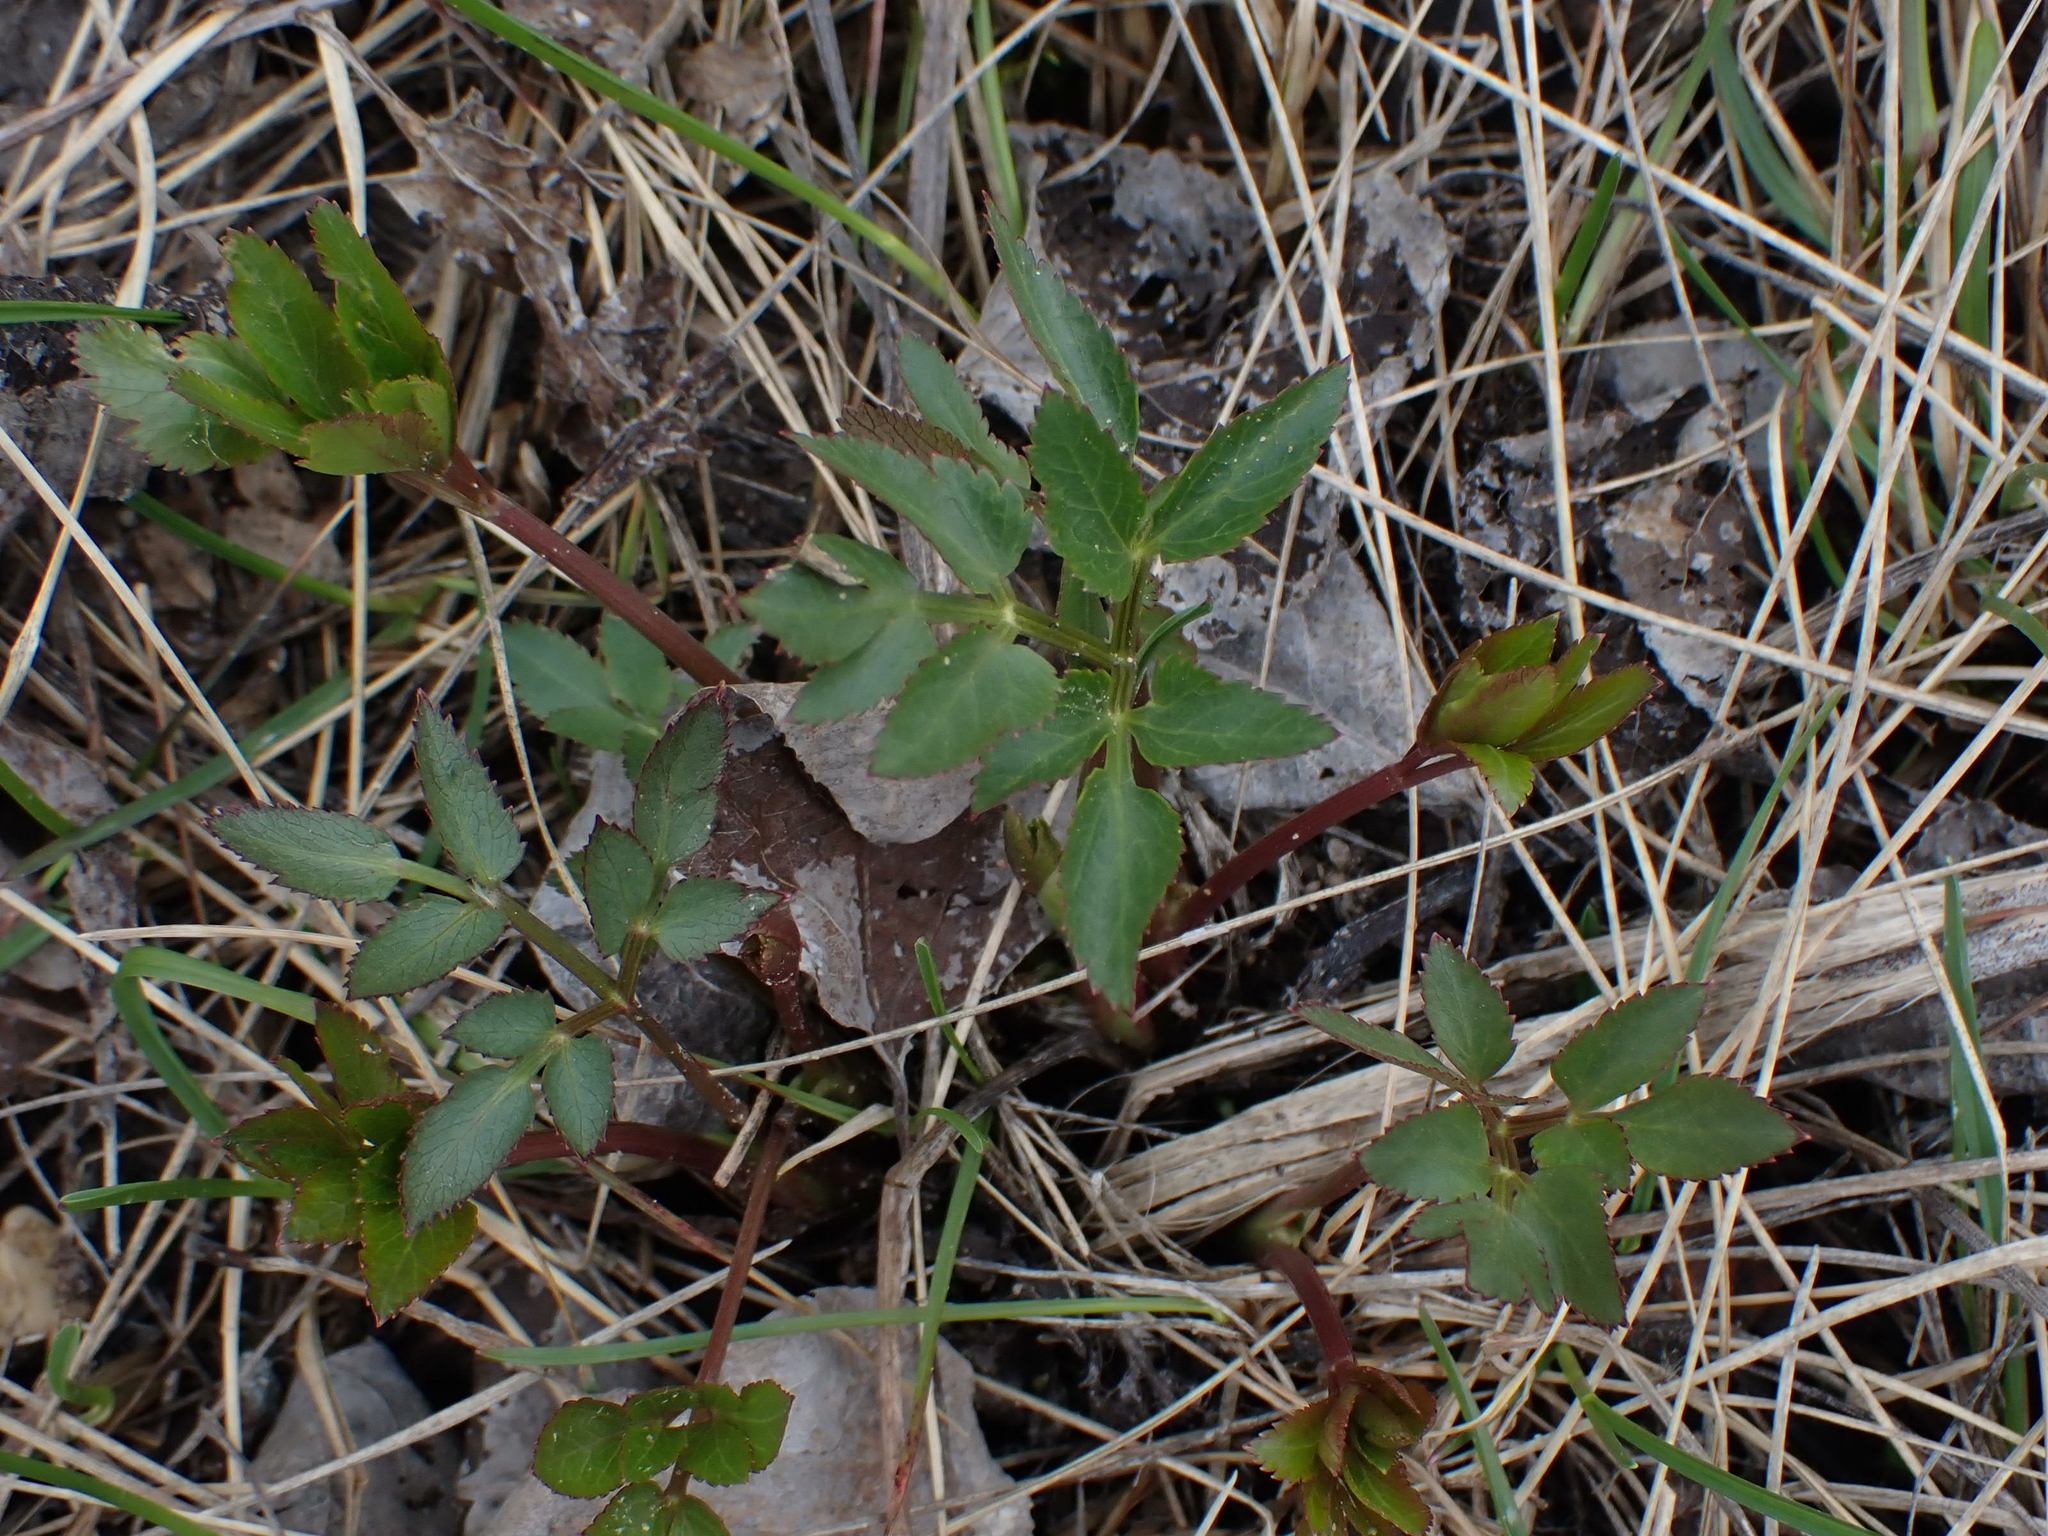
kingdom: Plantae
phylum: Tracheophyta
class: Magnoliopsida
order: Apiales
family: Apiaceae
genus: Zizia
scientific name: Zizia aurea
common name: Golden alexanders
